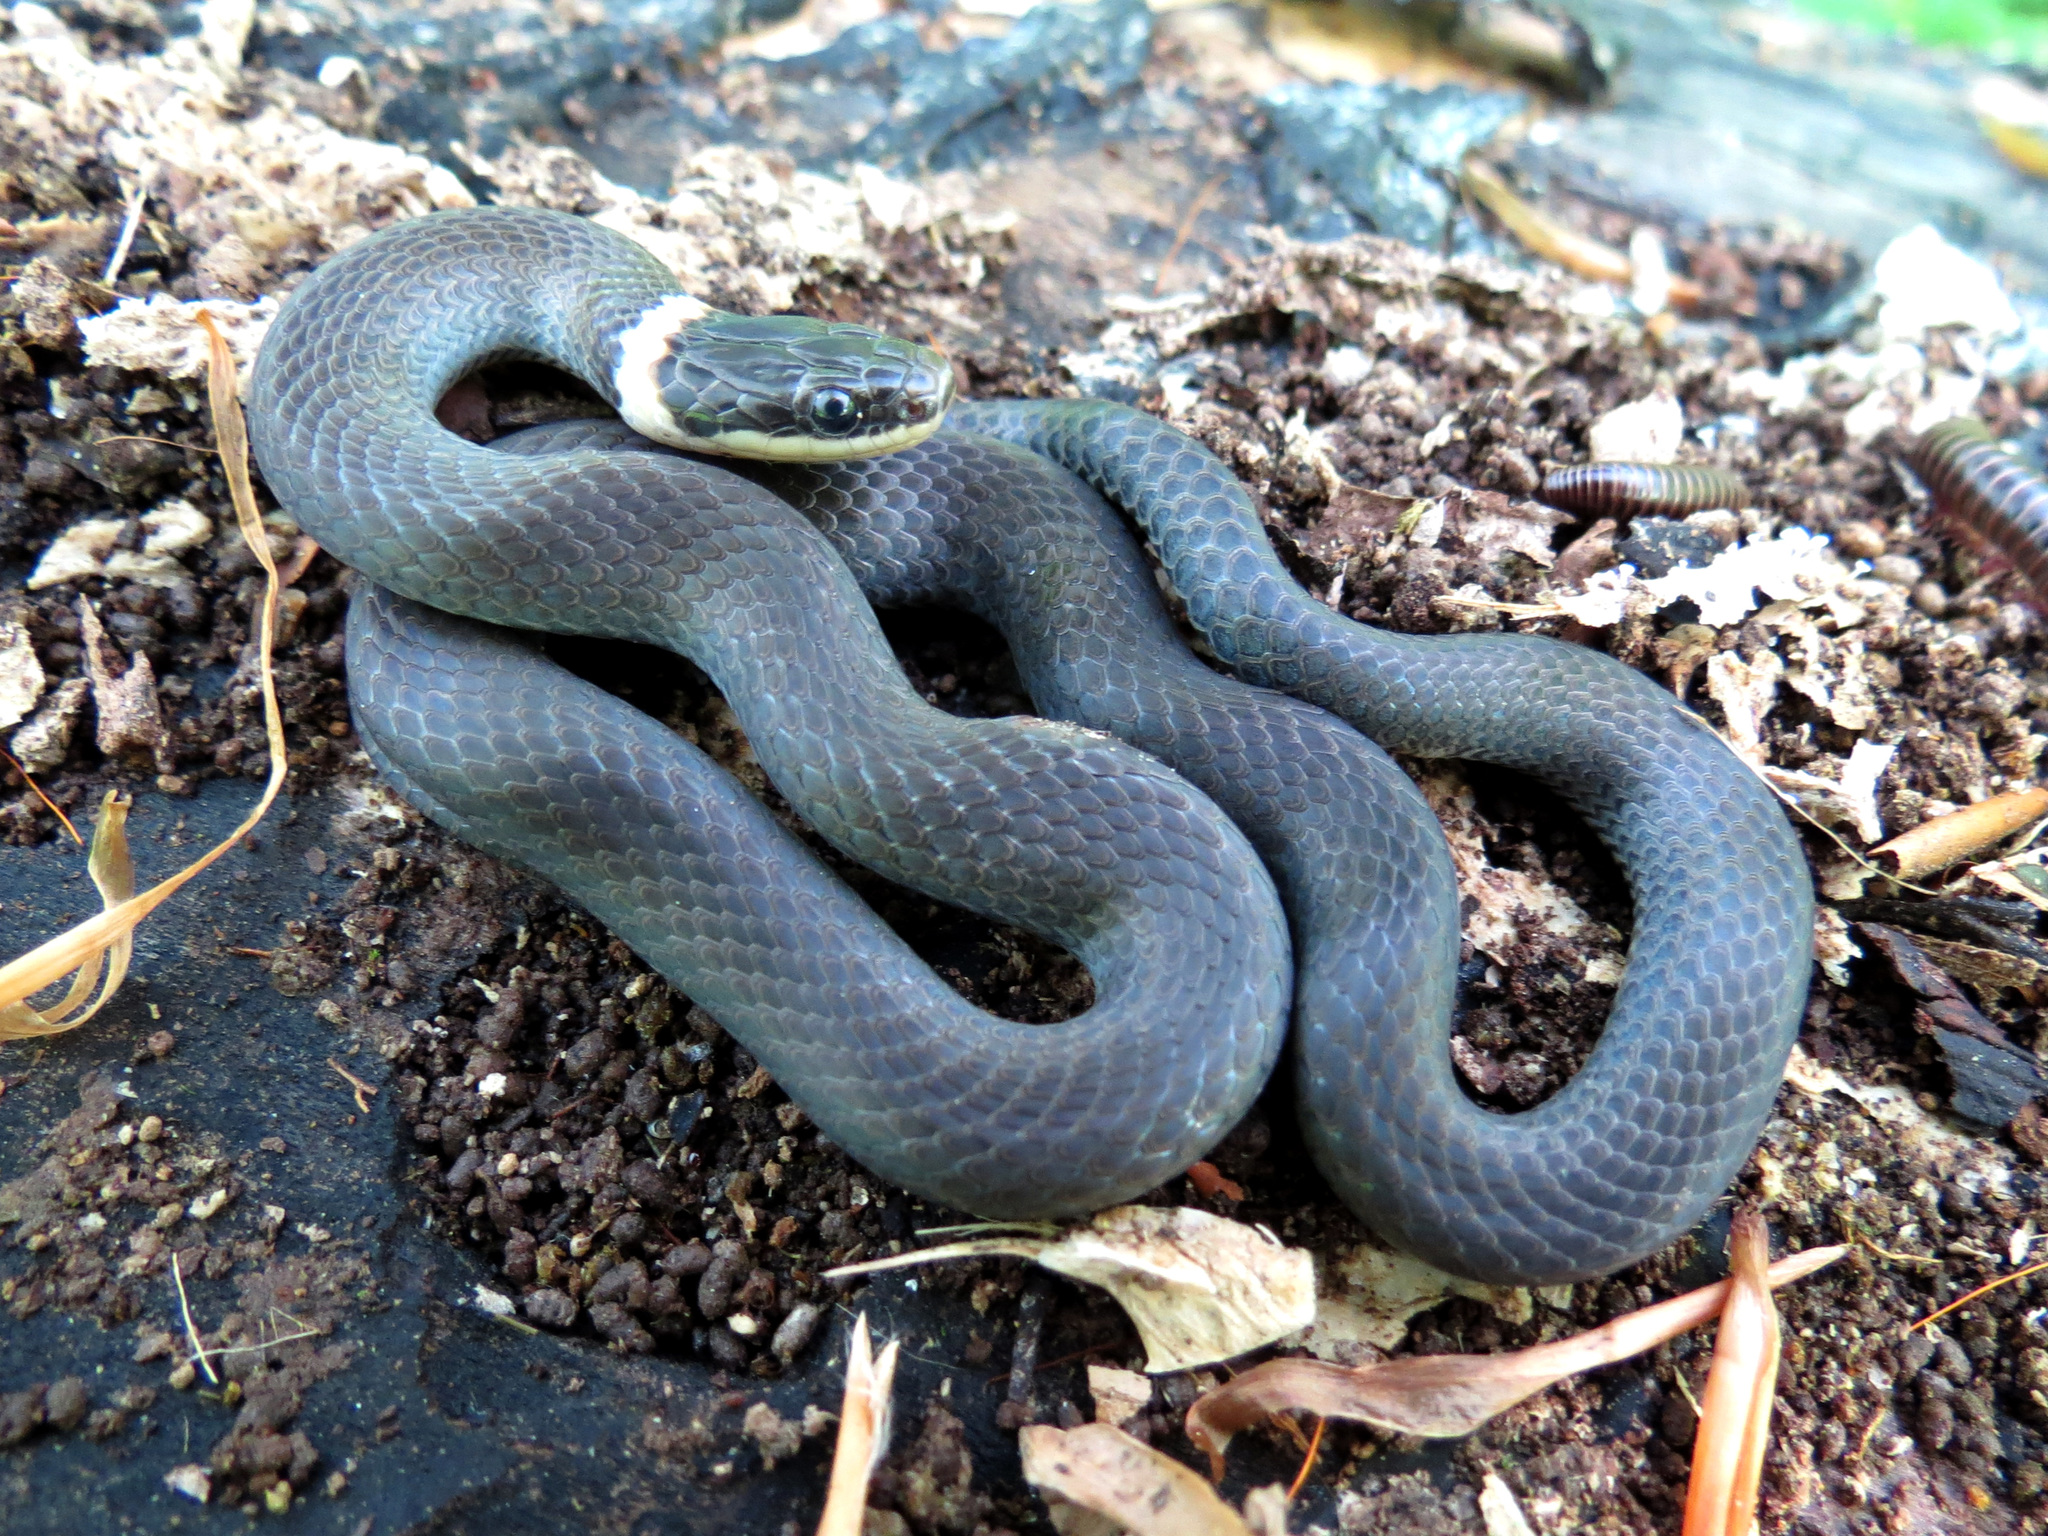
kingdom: Animalia
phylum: Chordata
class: Squamata
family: Colubridae
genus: Diadophis
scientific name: Diadophis punctatus
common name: Ringneck snake
